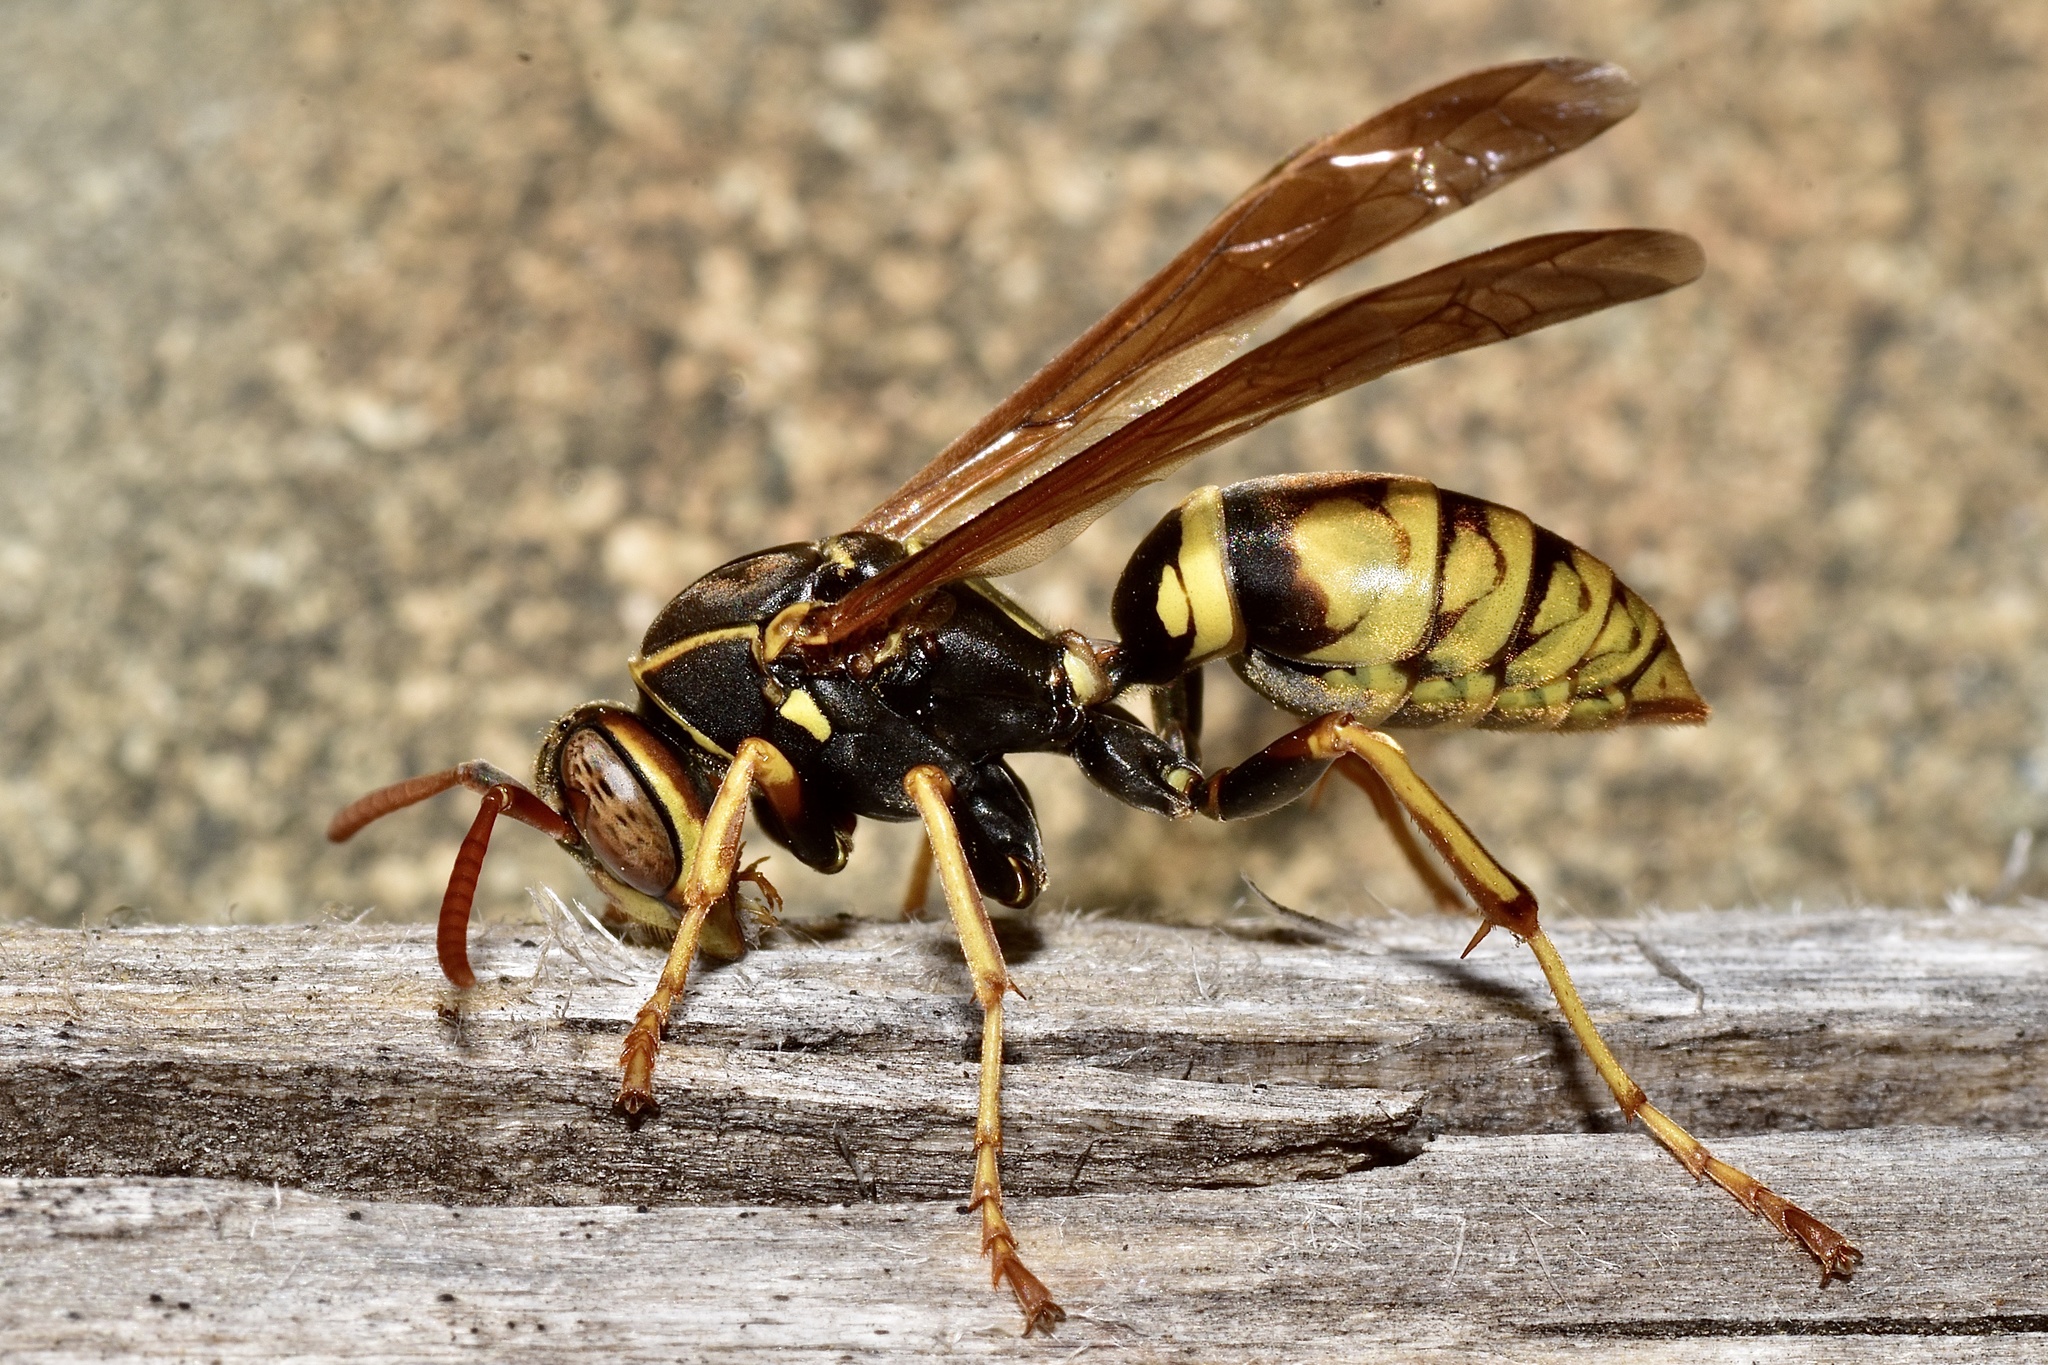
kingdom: Animalia
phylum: Arthropoda
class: Insecta
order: Hymenoptera
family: Eumenidae
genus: Polistes
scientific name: Polistes aurifer
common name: Paper wasp
